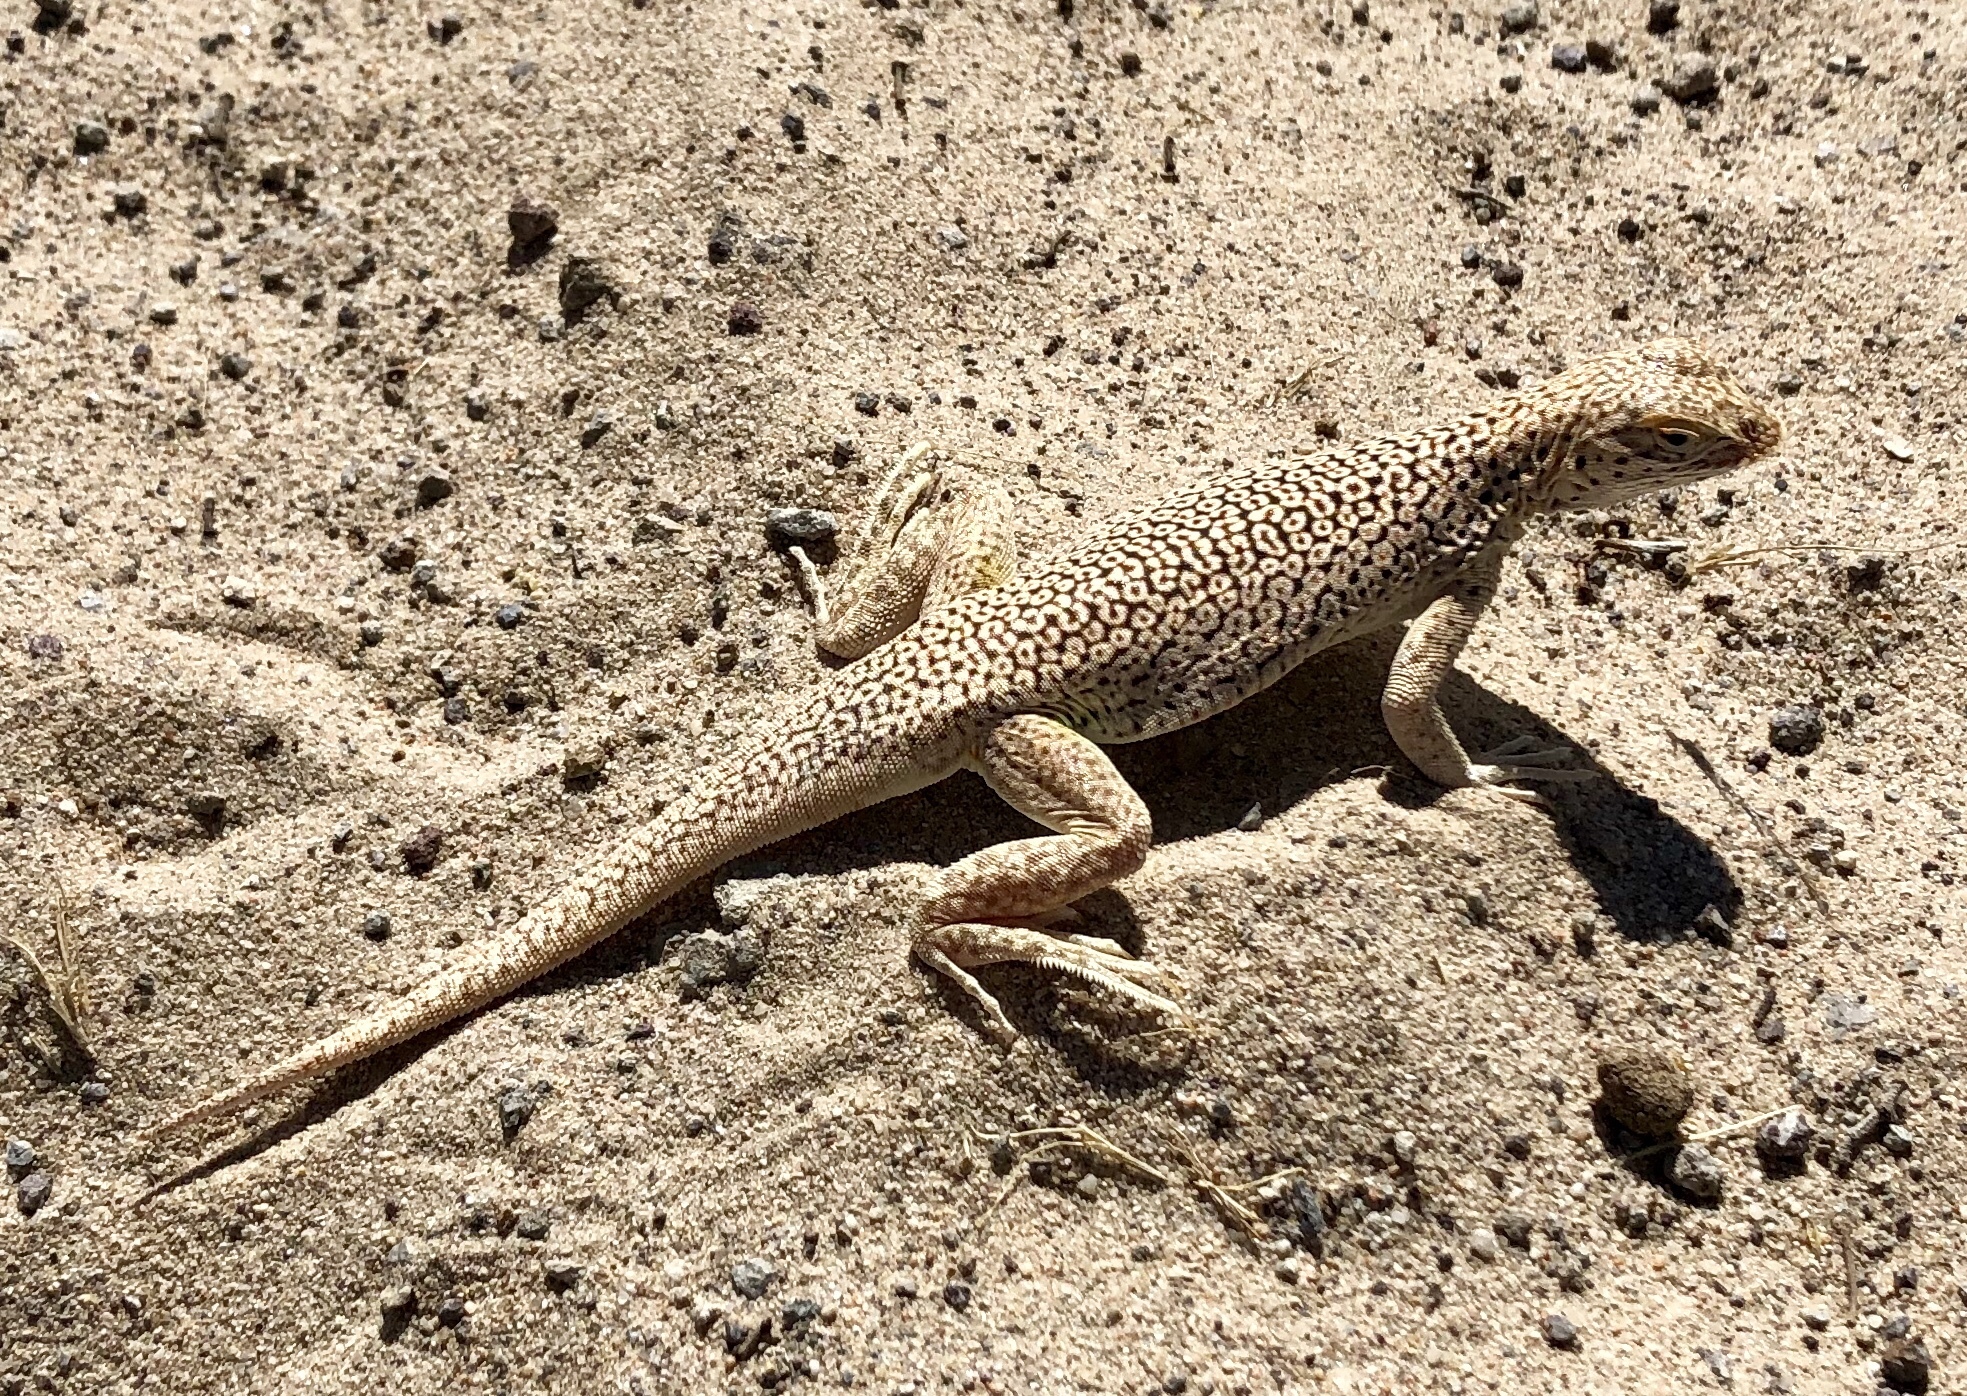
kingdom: Animalia
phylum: Chordata
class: Squamata
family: Phrynosomatidae
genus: Uma
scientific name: Uma scoparia
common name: Mojave fringe-toed lizard
